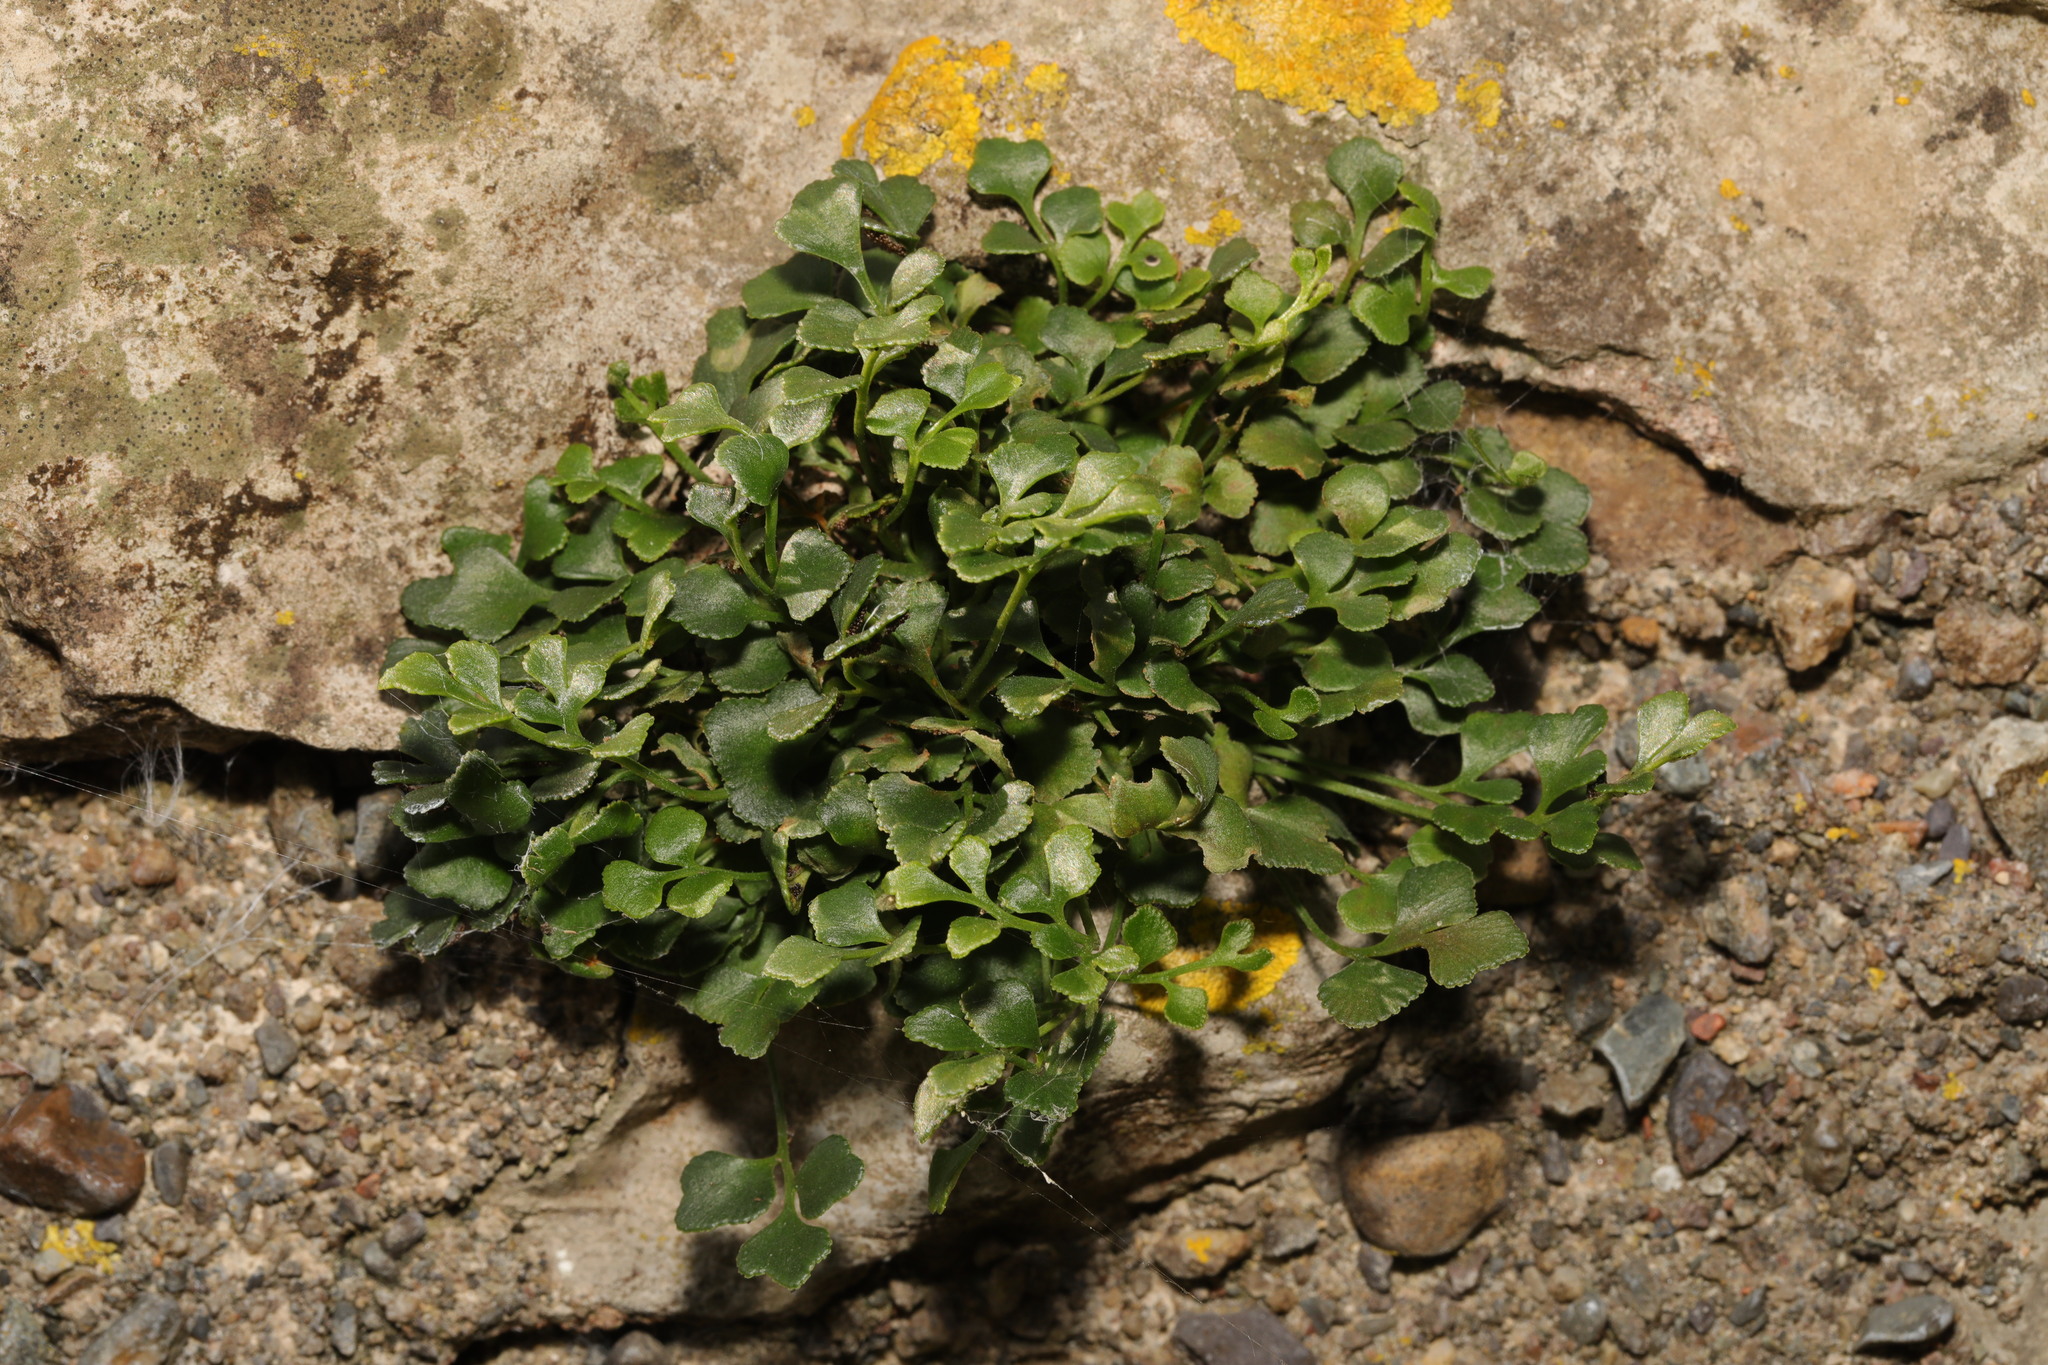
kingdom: Plantae
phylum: Tracheophyta
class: Polypodiopsida
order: Polypodiales
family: Aspleniaceae
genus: Asplenium
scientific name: Asplenium ruta-muraria
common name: Wall-rue
